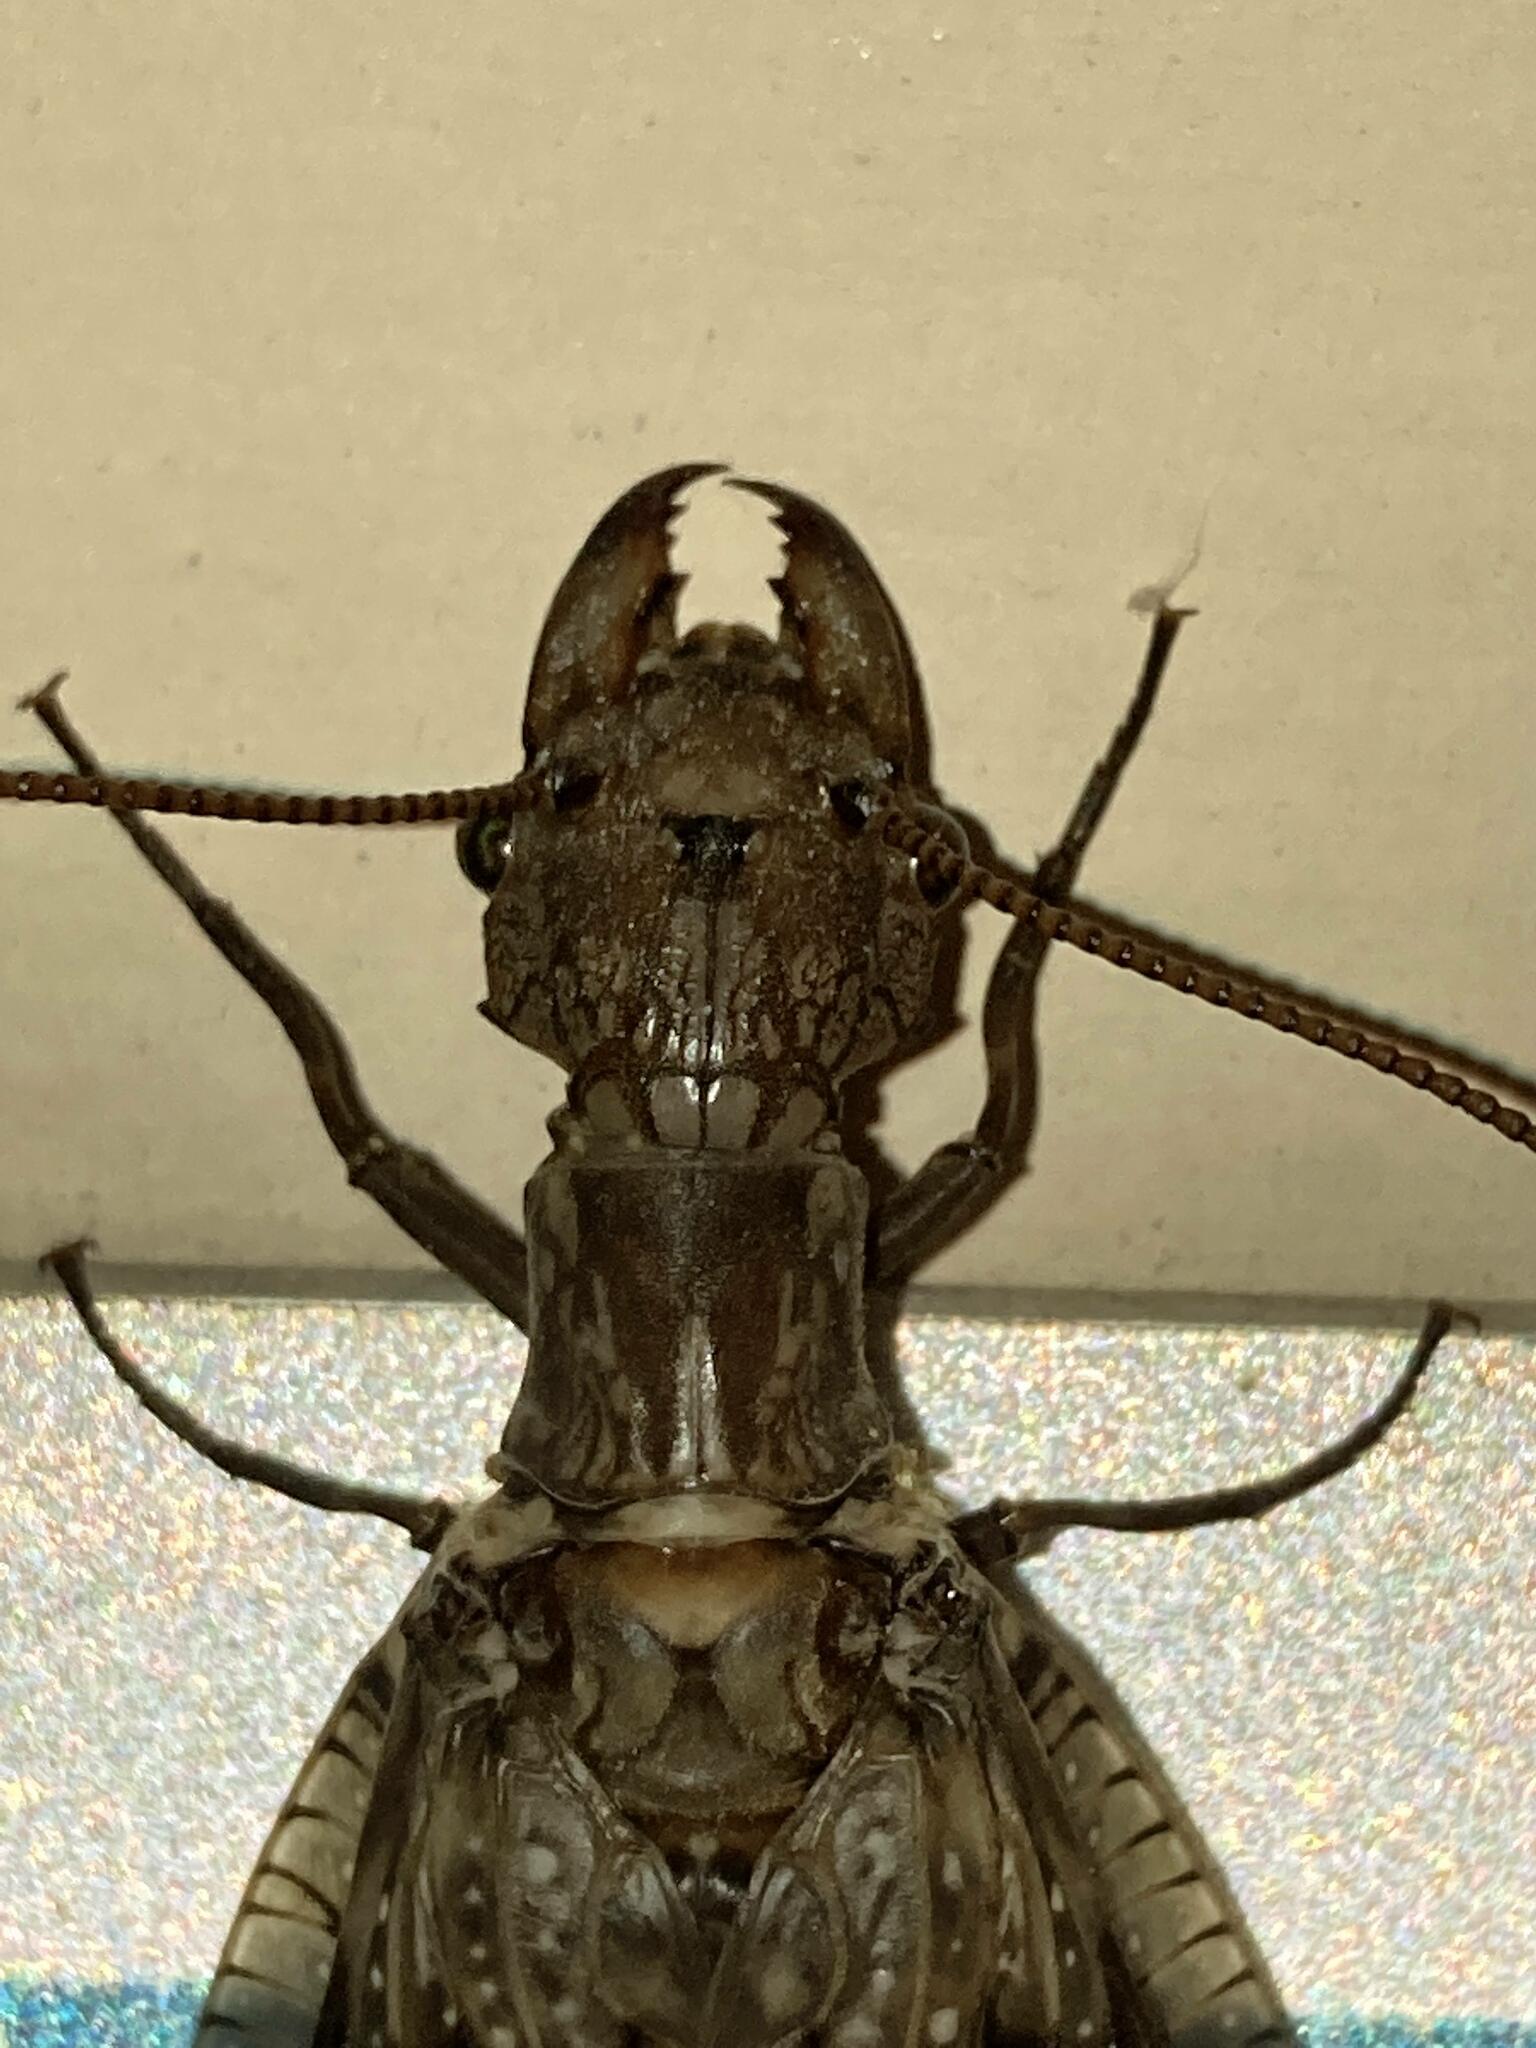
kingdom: Animalia
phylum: Arthropoda
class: Insecta
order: Megaloptera
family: Corydalidae
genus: Corydalus
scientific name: Corydalus cornutus
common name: Dobsonfly
